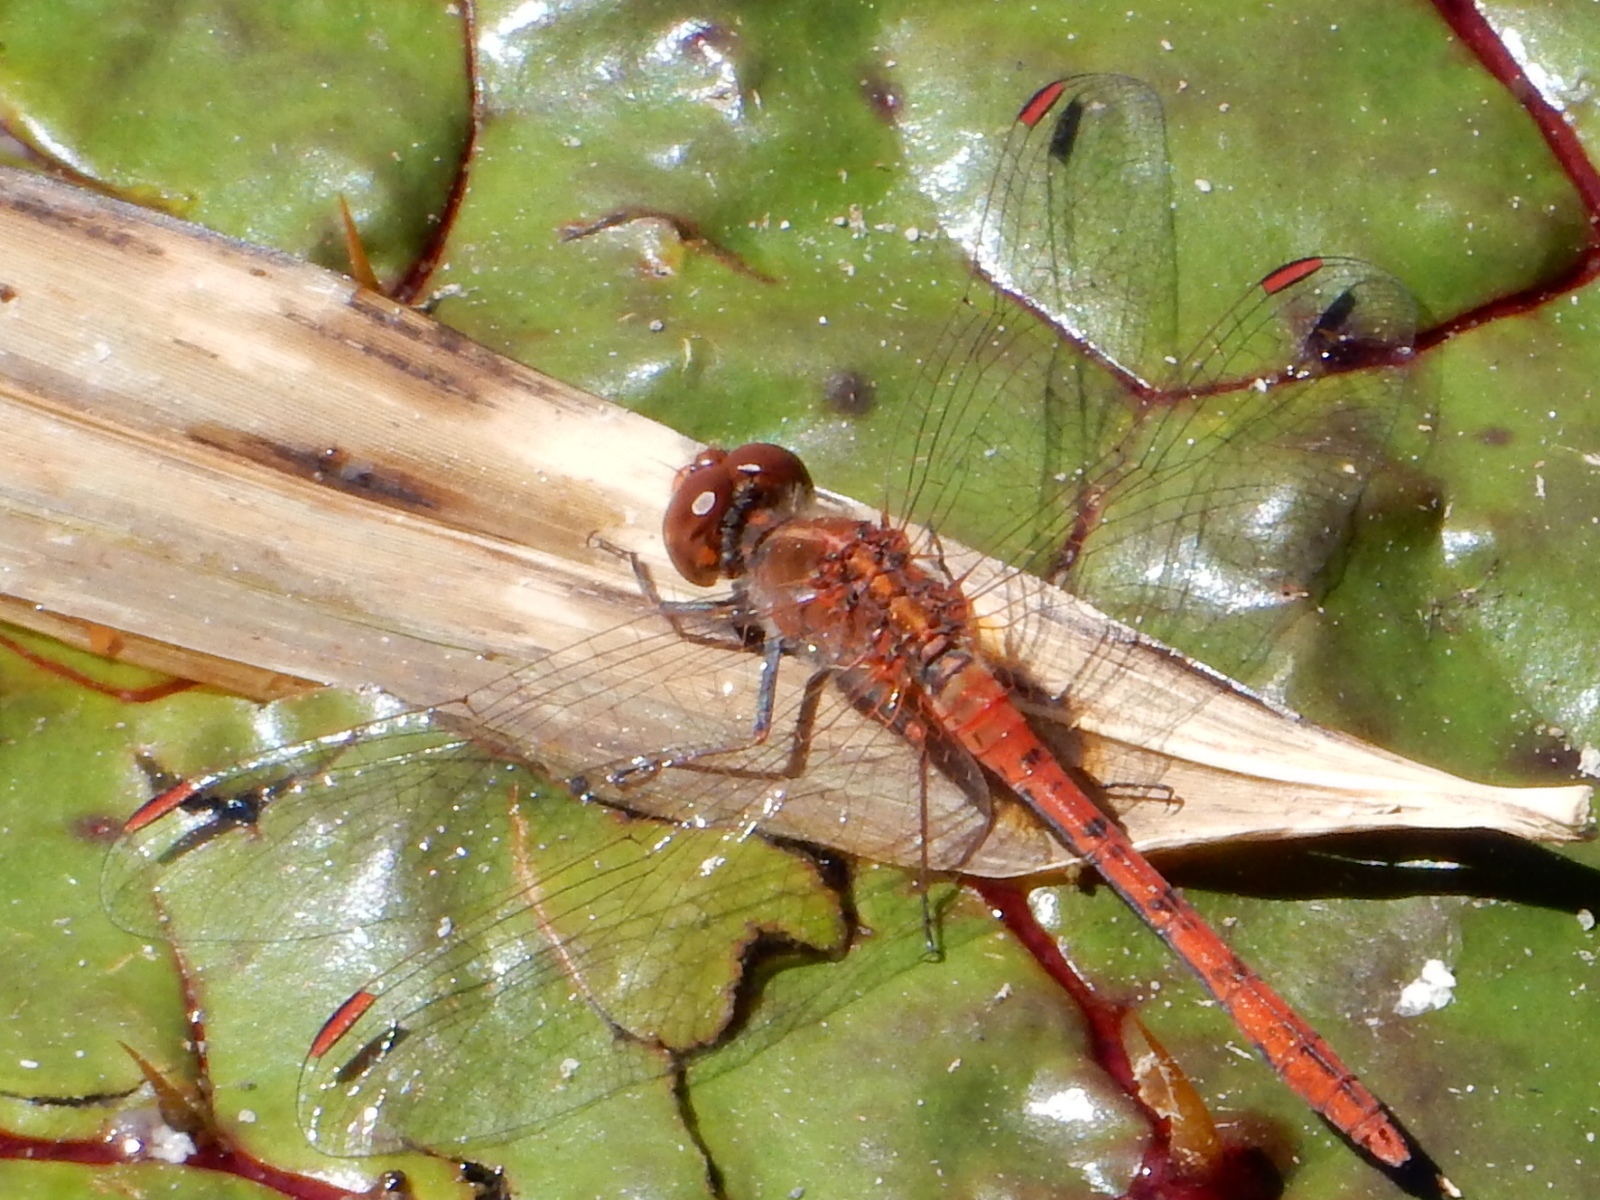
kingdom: Animalia
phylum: Arthropoda
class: Insecta
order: Odonata
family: Libellulidae
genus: Diplacodes
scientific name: Diplacodes bipunctata
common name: Red percher dragonfly
